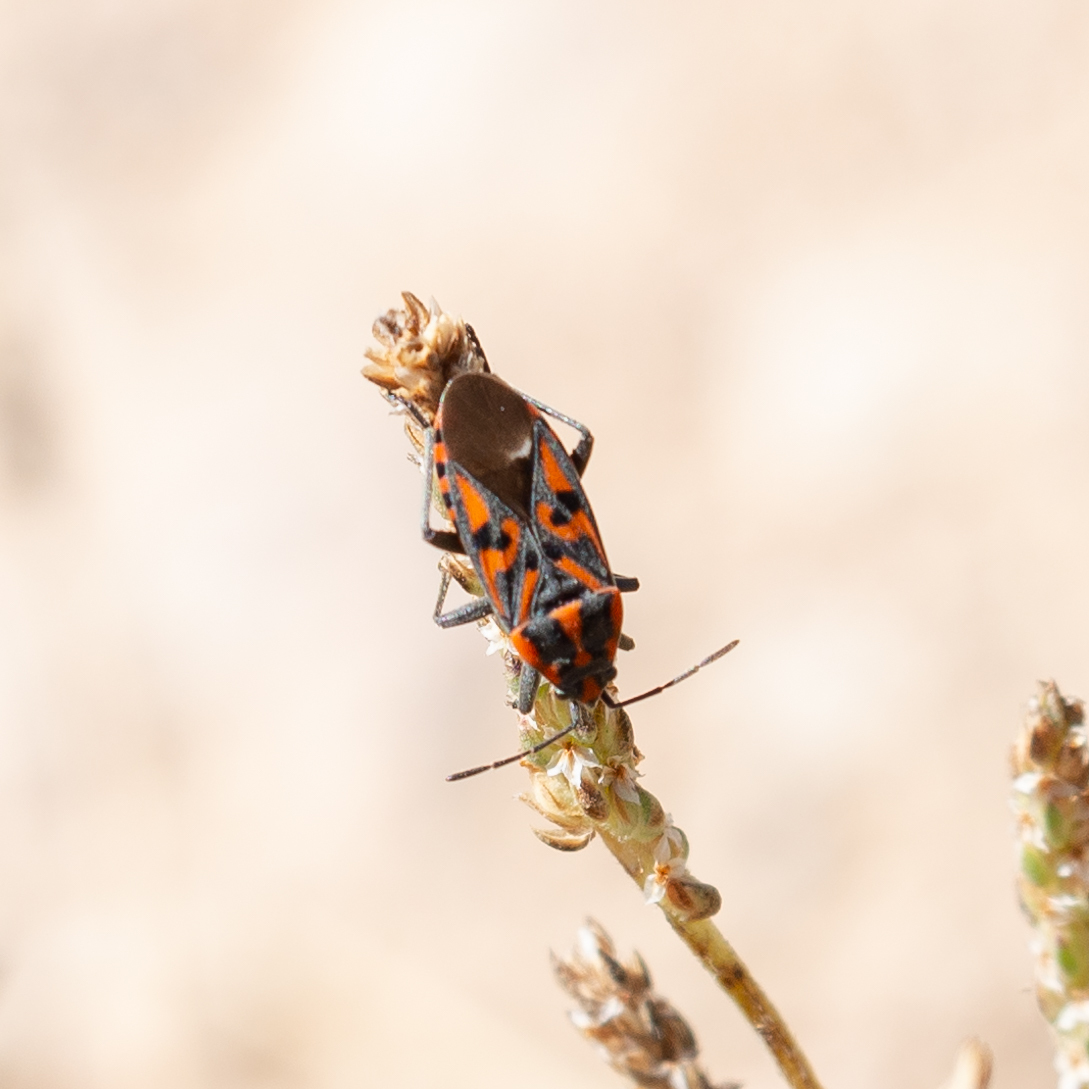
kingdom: Animalia
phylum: Arthropoda
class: Insecta
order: Hemiptera
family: Lygaeidae
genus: Spilostethus
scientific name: Spilostethus saxatilis
